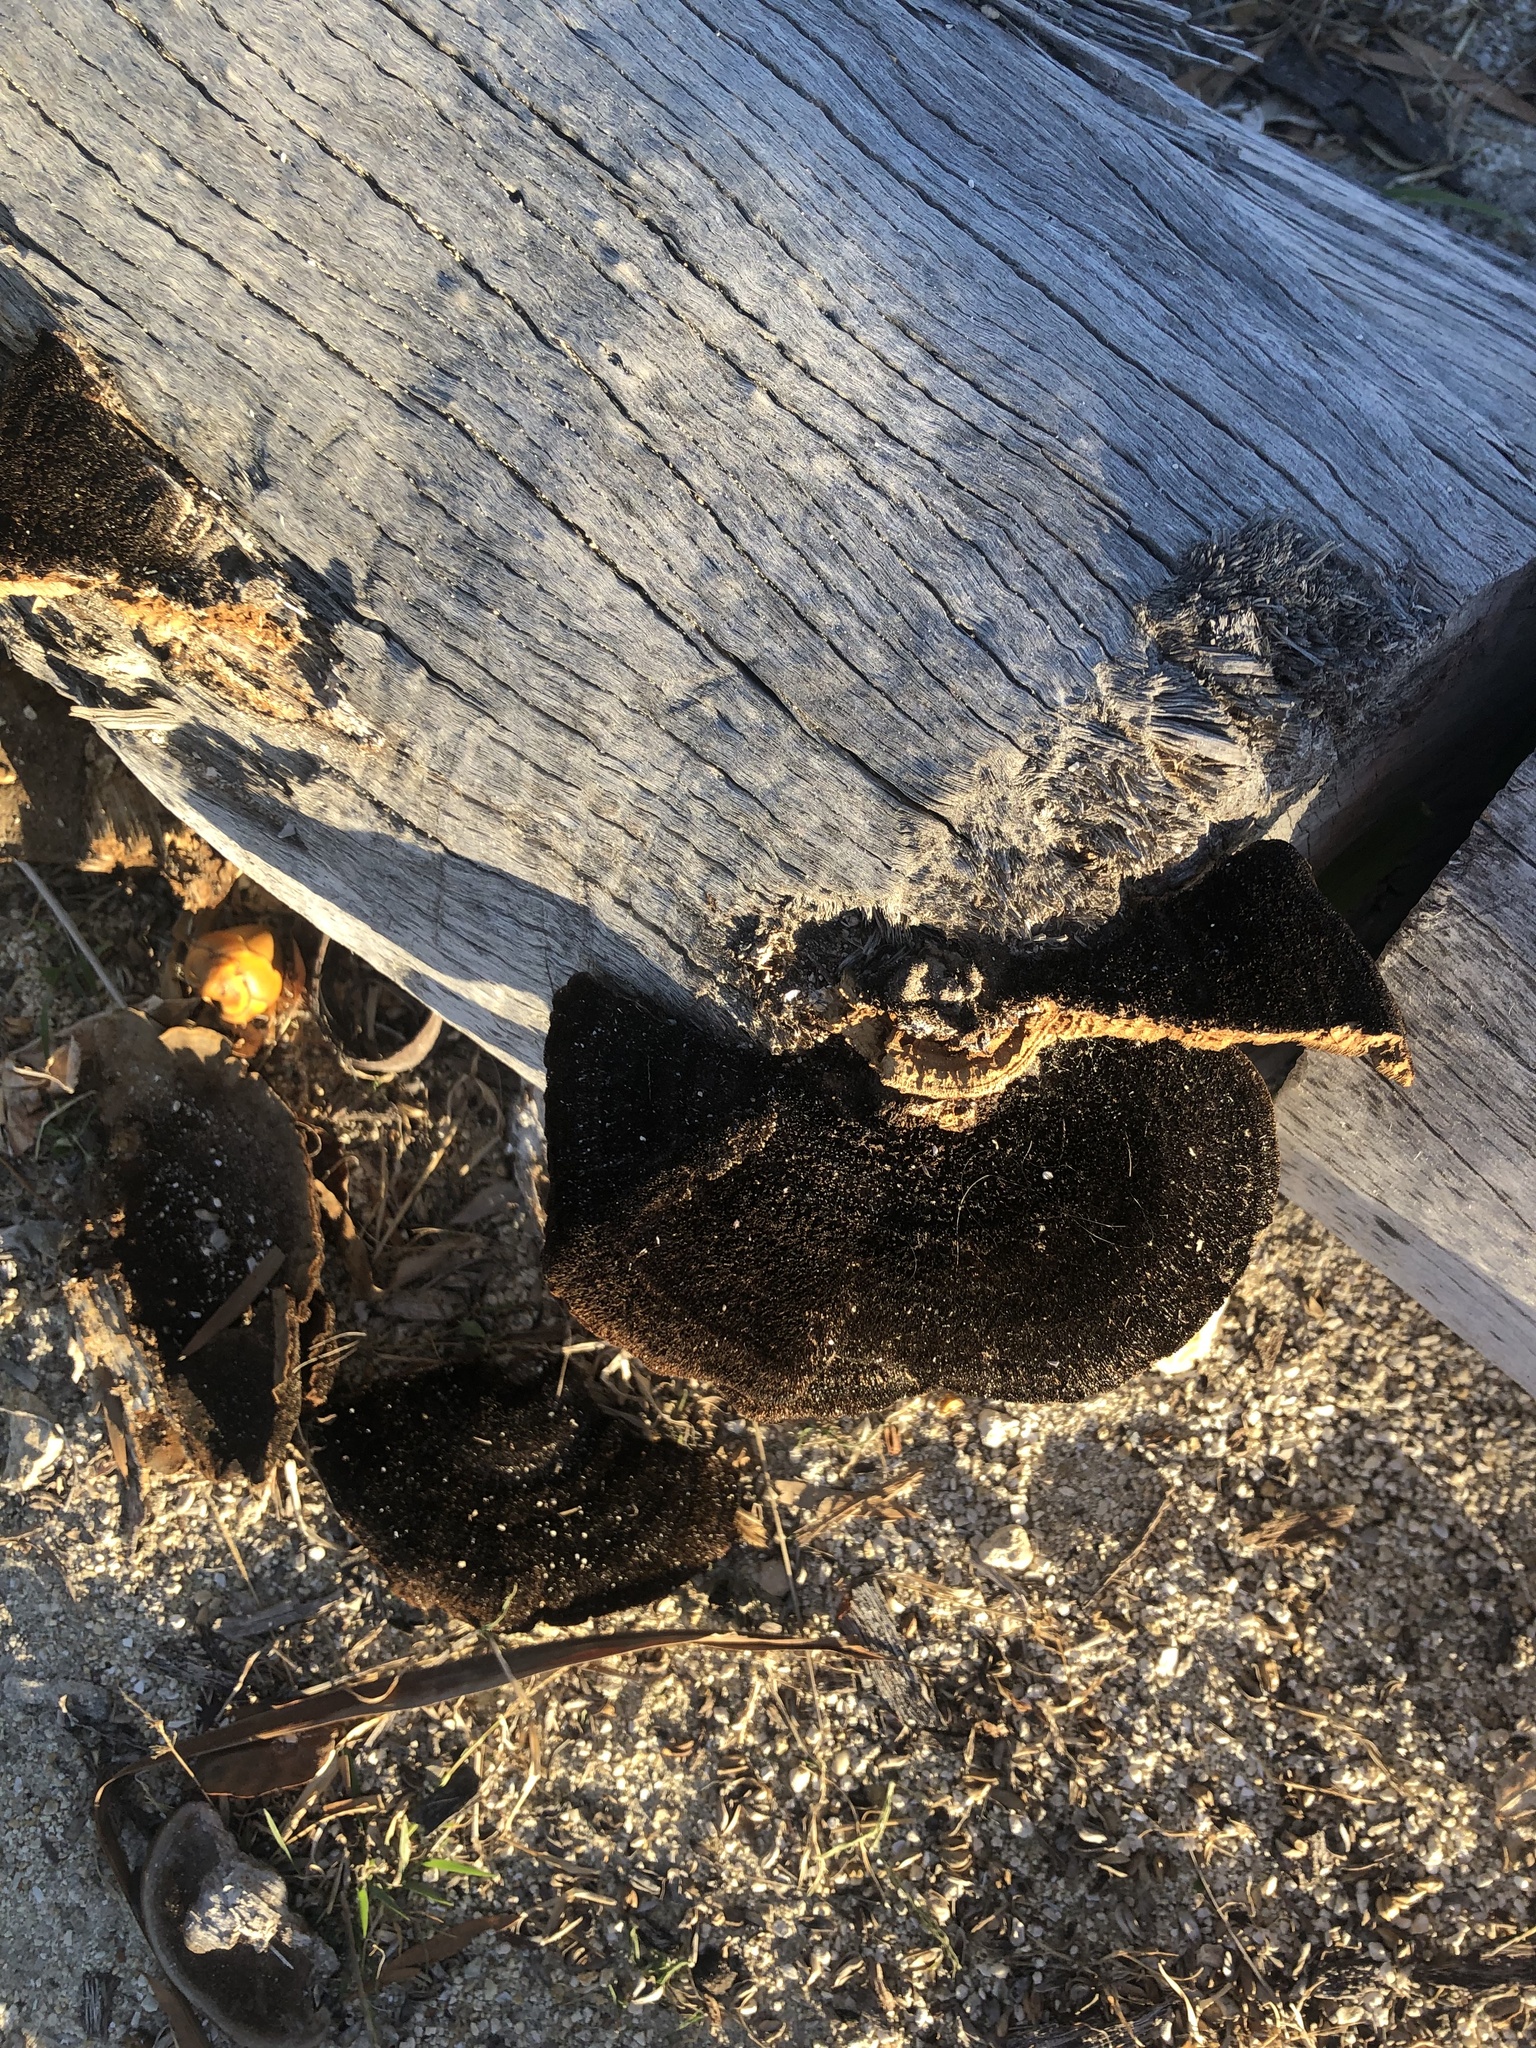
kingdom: Fungi
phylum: Basidiomycota
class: Agaricomycetes
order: Polyporales
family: Cerrenaceae
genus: Cerrena
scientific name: Cerrena hydnoides
